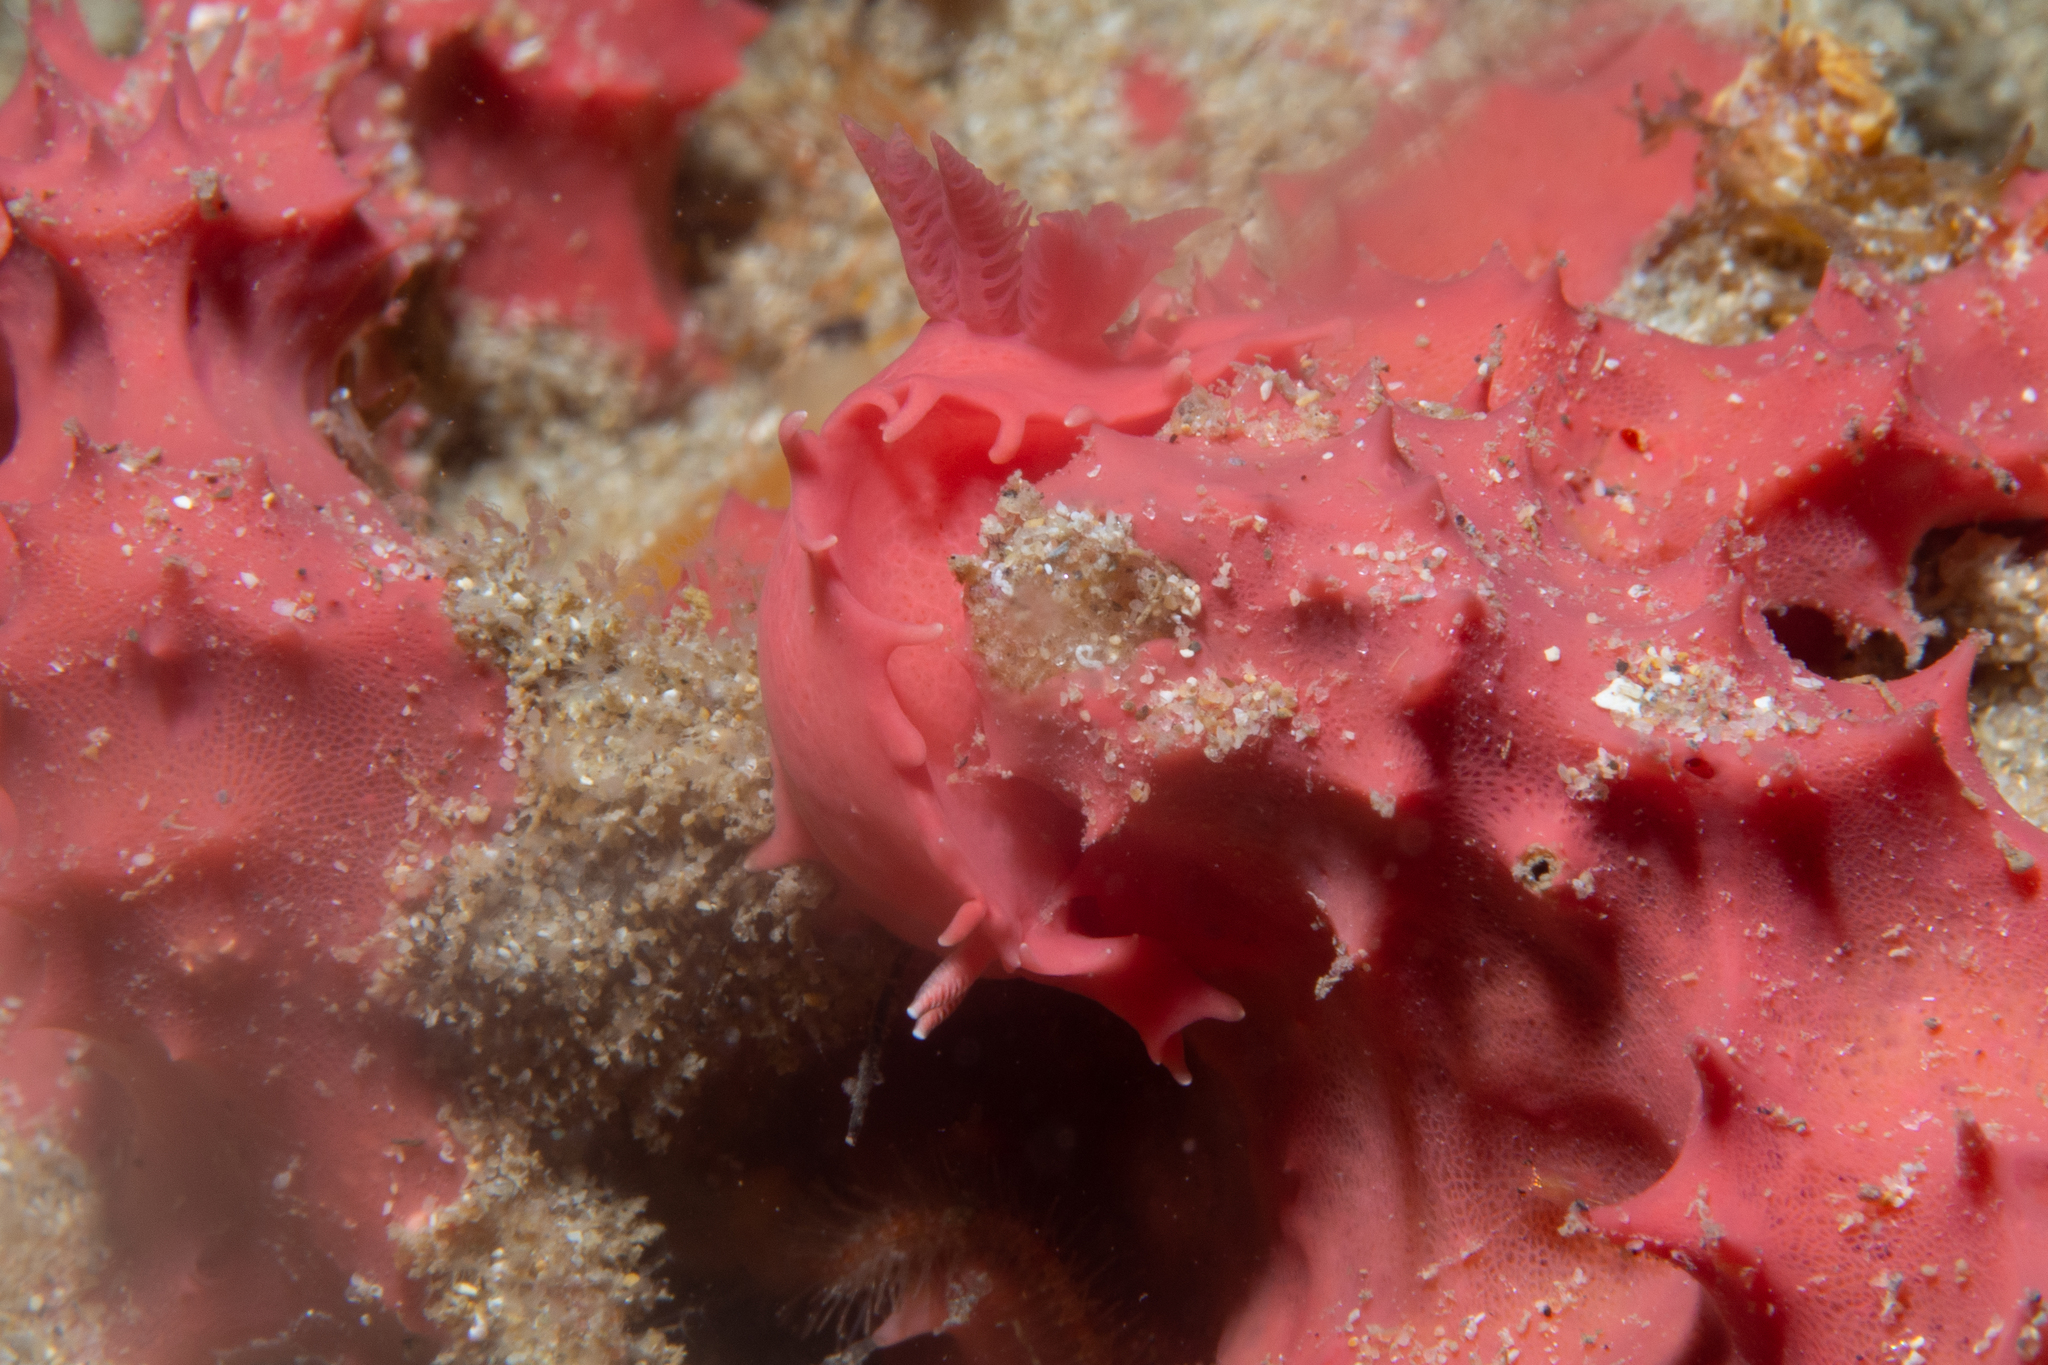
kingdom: Animalia
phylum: Mollusca
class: Gastropoda
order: Nudibranchia
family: Chromodorididae
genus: Verconia
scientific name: Verconia verconis
